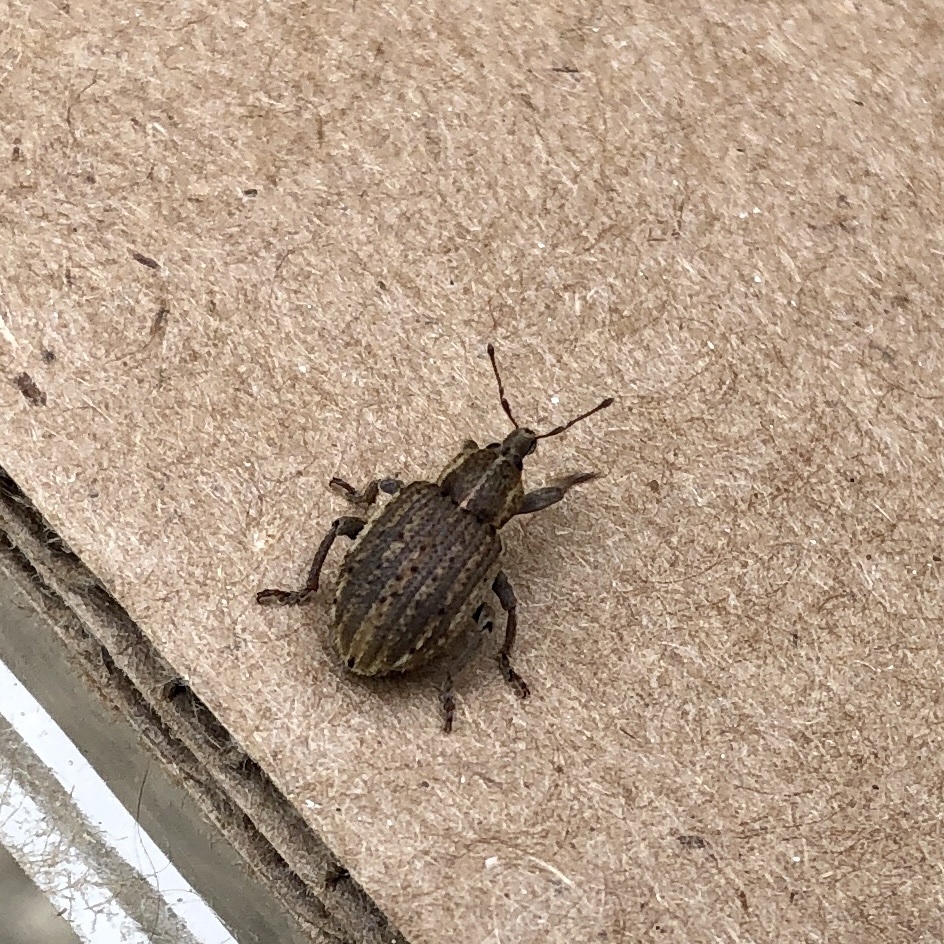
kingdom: Animalia
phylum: Arthropoda
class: Insecta
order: Coleoptera
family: Curculionidae
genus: Brachypera
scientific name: Brachypera zoilus
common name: Clover leaf weevil
